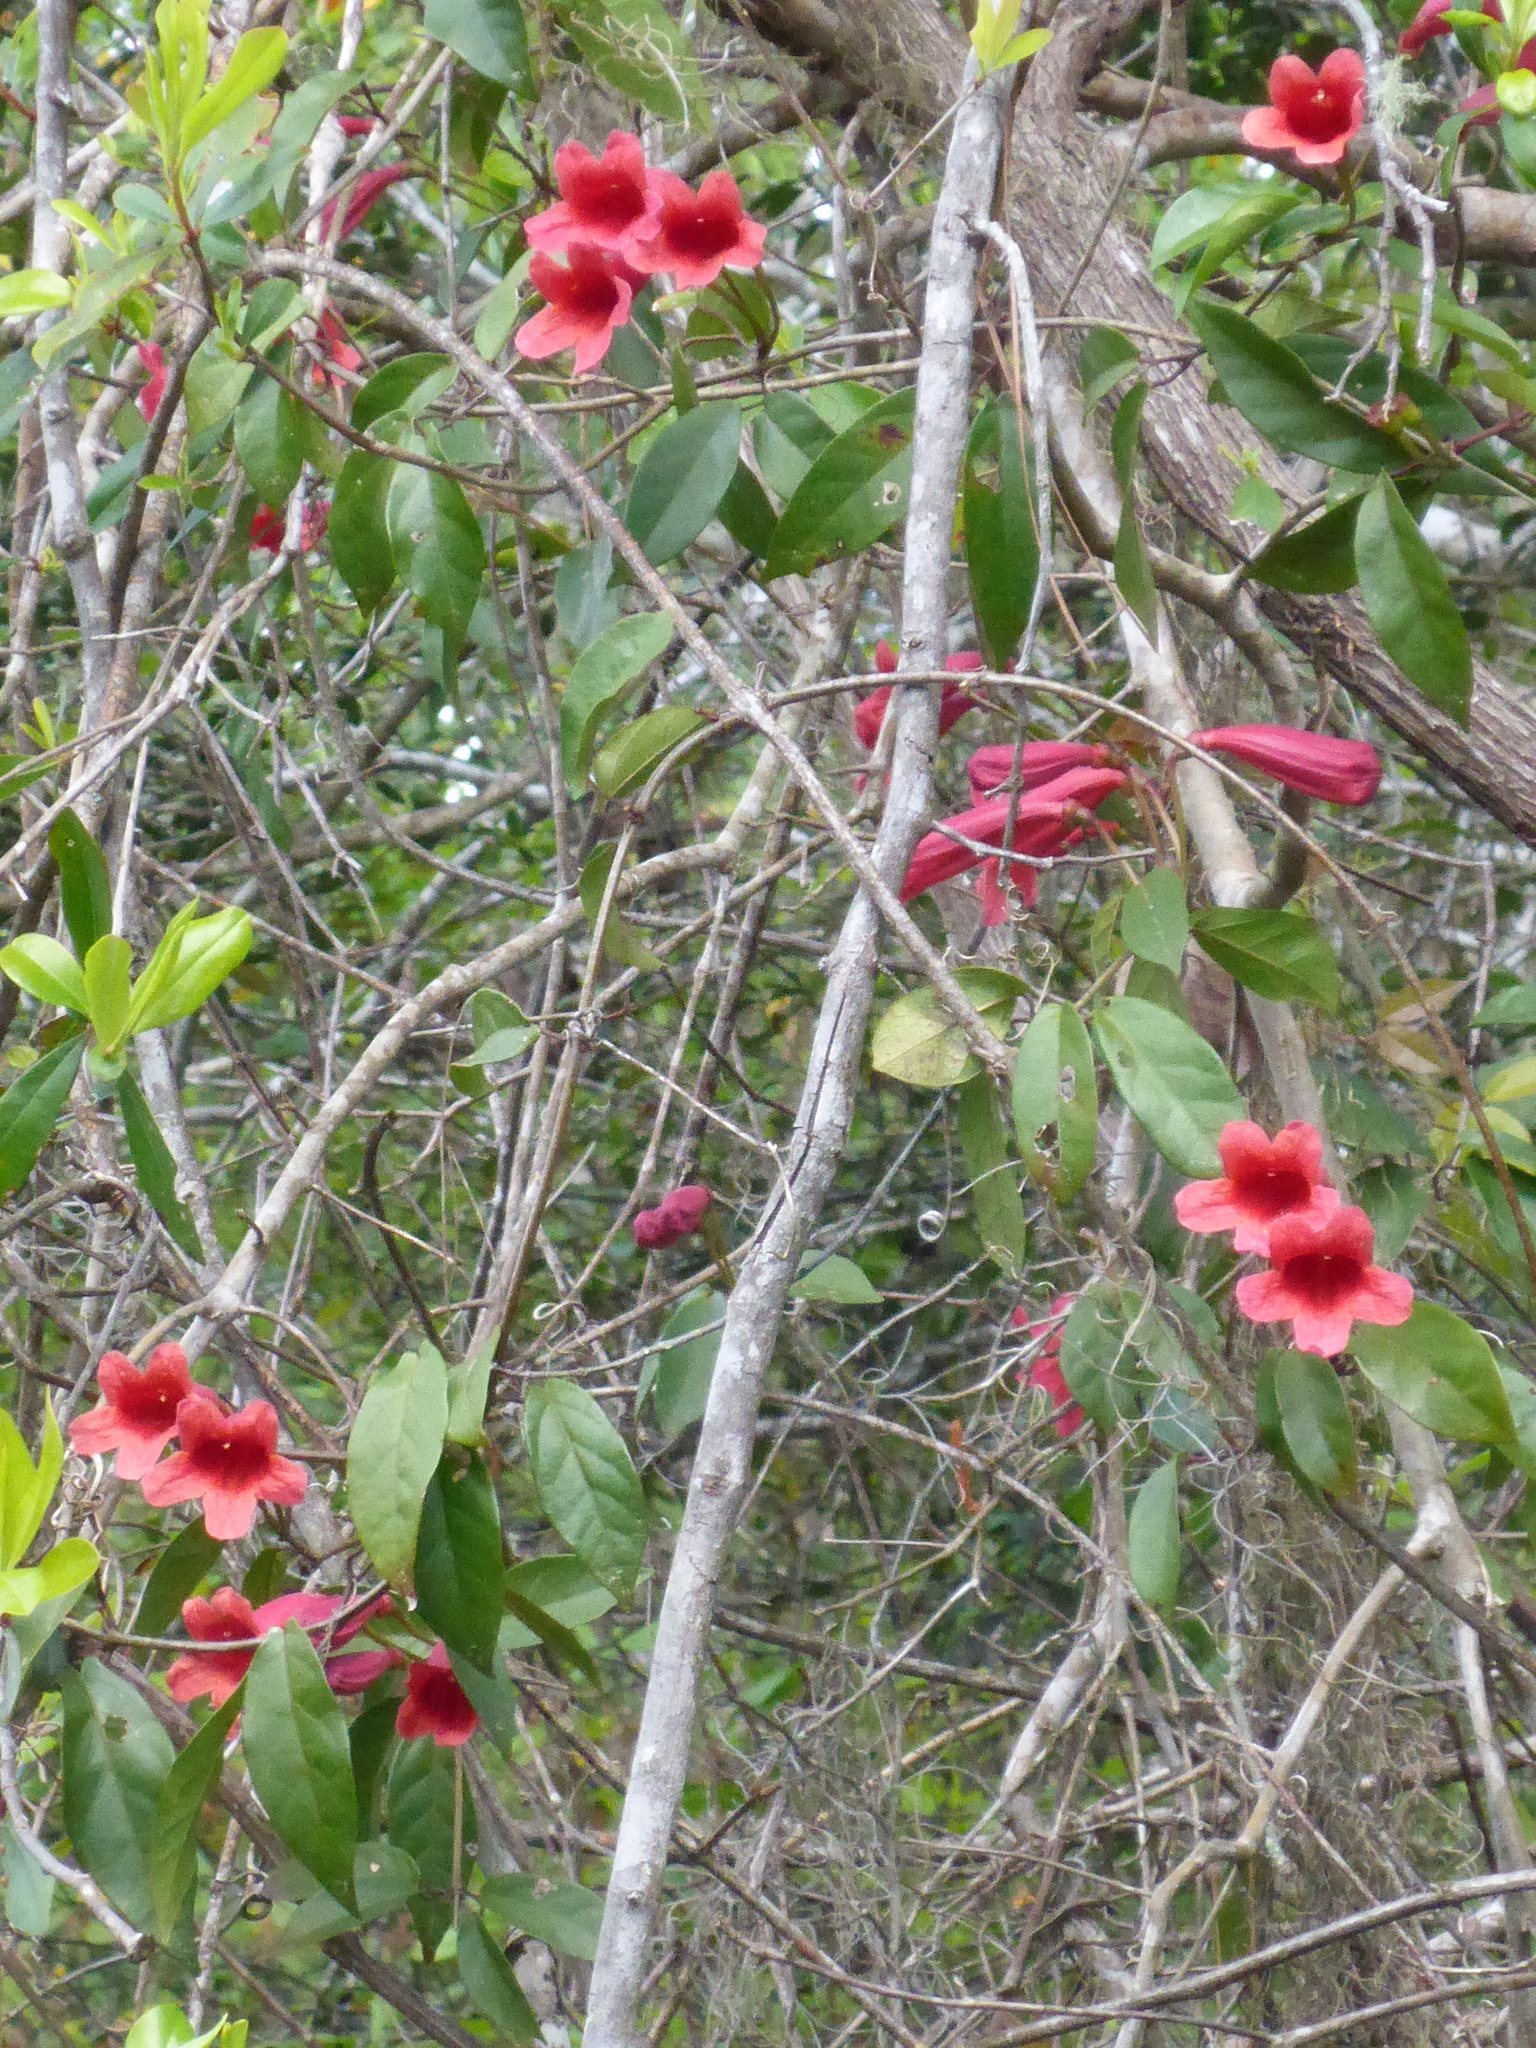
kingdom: Plantae
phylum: Tracheophyta
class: Magnoliopsida
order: Lamiales
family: Bignoniaceae
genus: Bignonia
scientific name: Bignonia capreolata
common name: Crossvine
